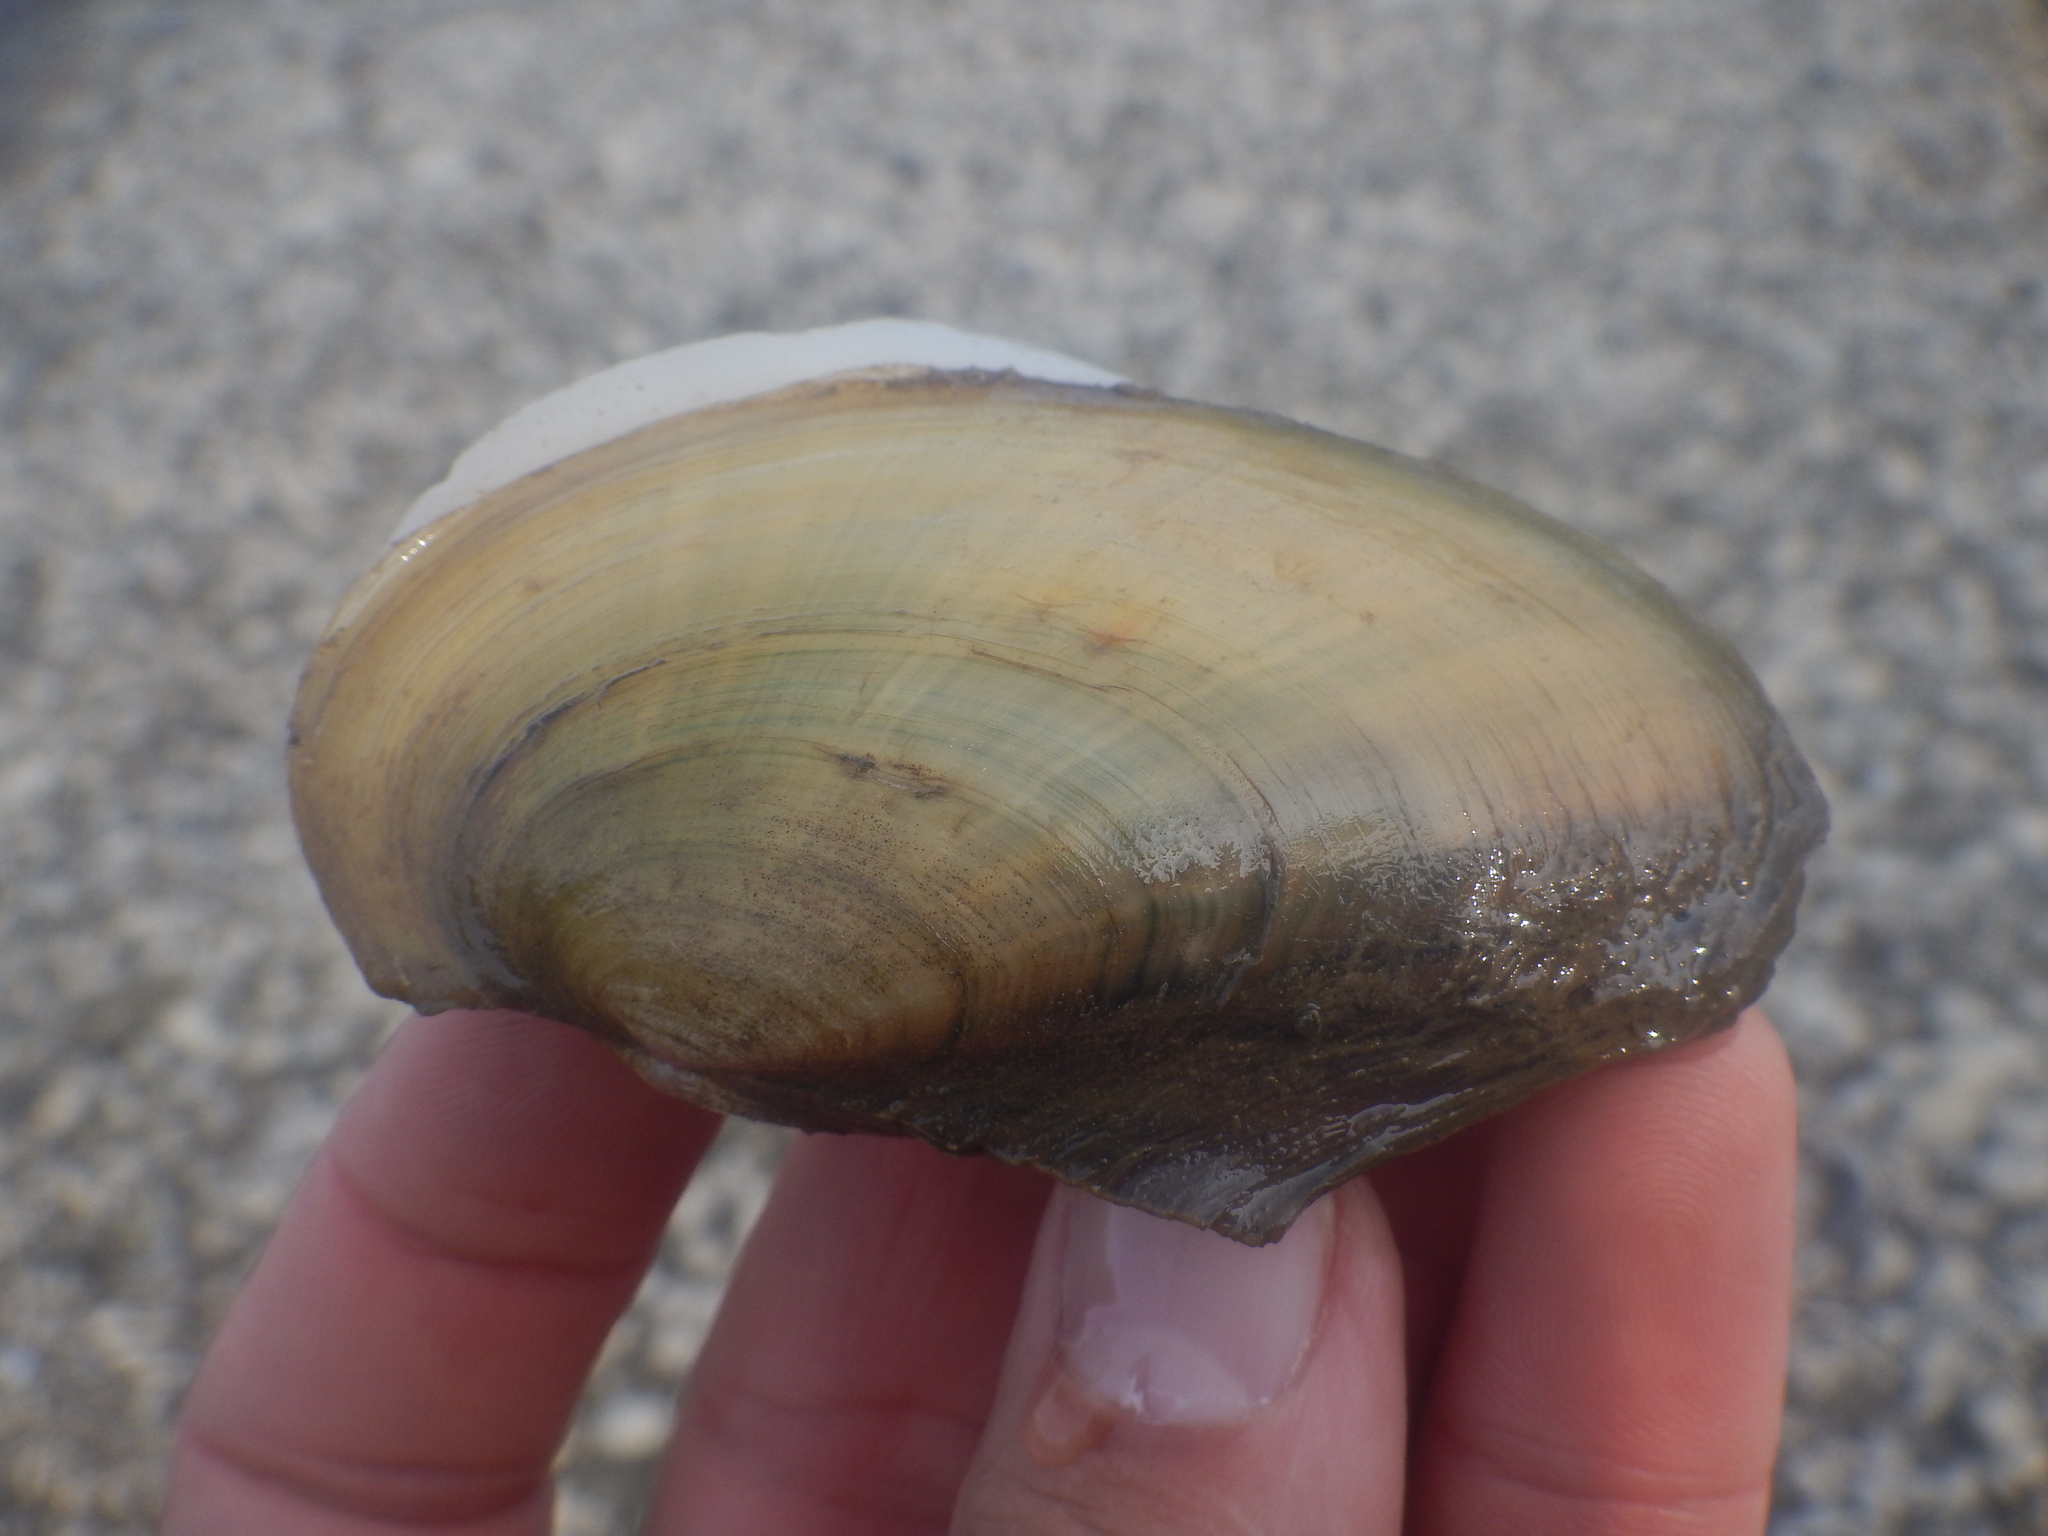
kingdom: Animalia
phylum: Mollusca
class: Bivalvia
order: Unionida
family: Unionidae
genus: Potamilus
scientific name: Potamilus fragilis
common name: Fragile papershell
